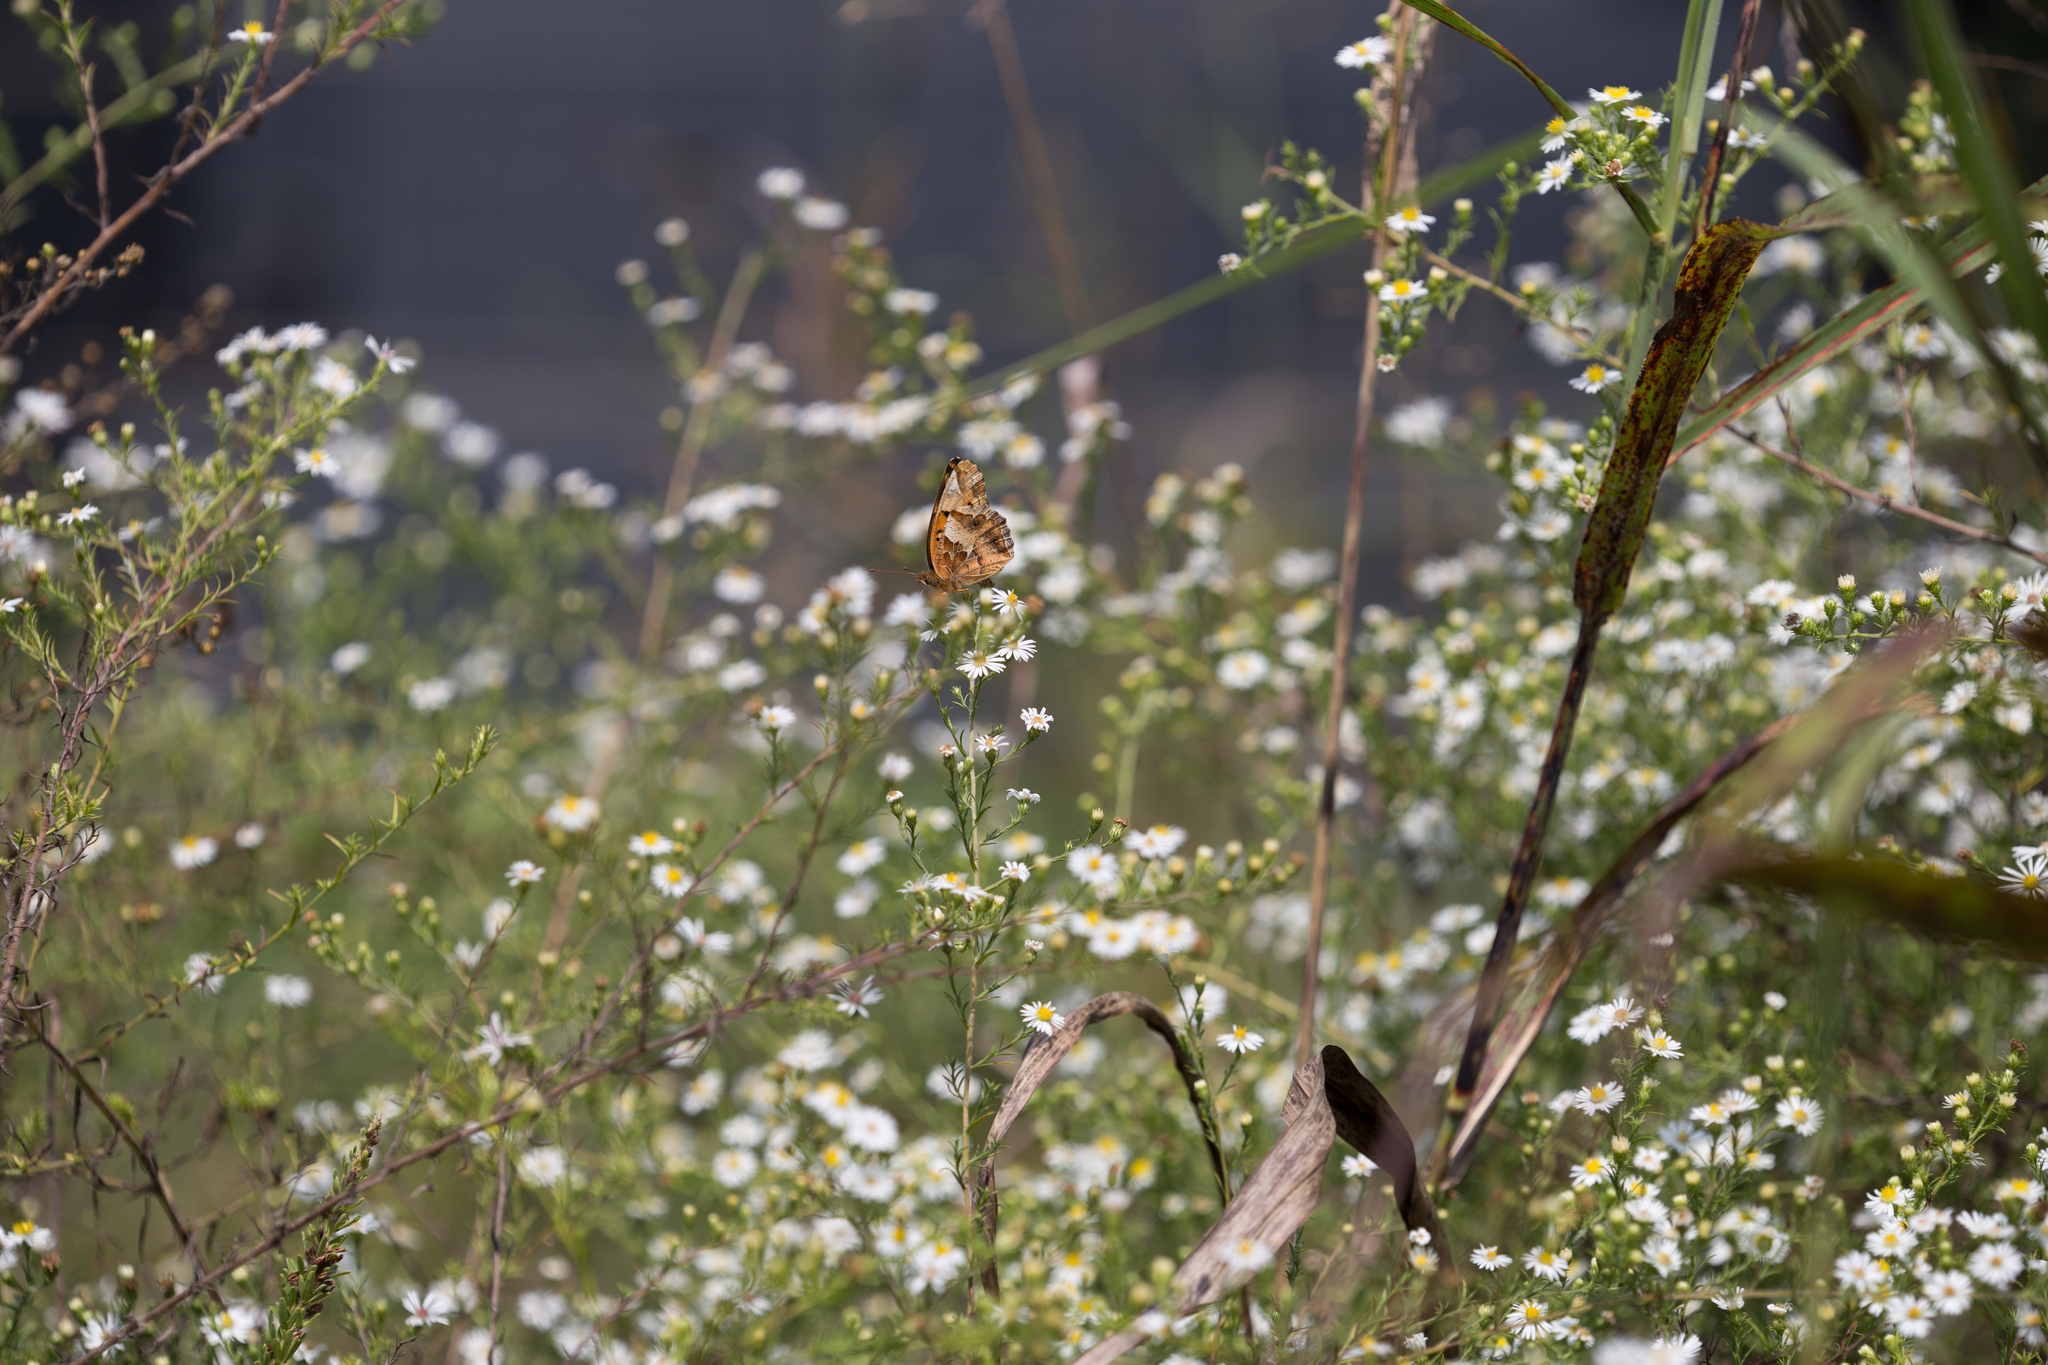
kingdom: Animalia
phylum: Arthropoda
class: Insecta
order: Lepidoptera
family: Nymphalidae
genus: Euptoieta
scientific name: Euptoieta claudia
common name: Variegated fritillary
